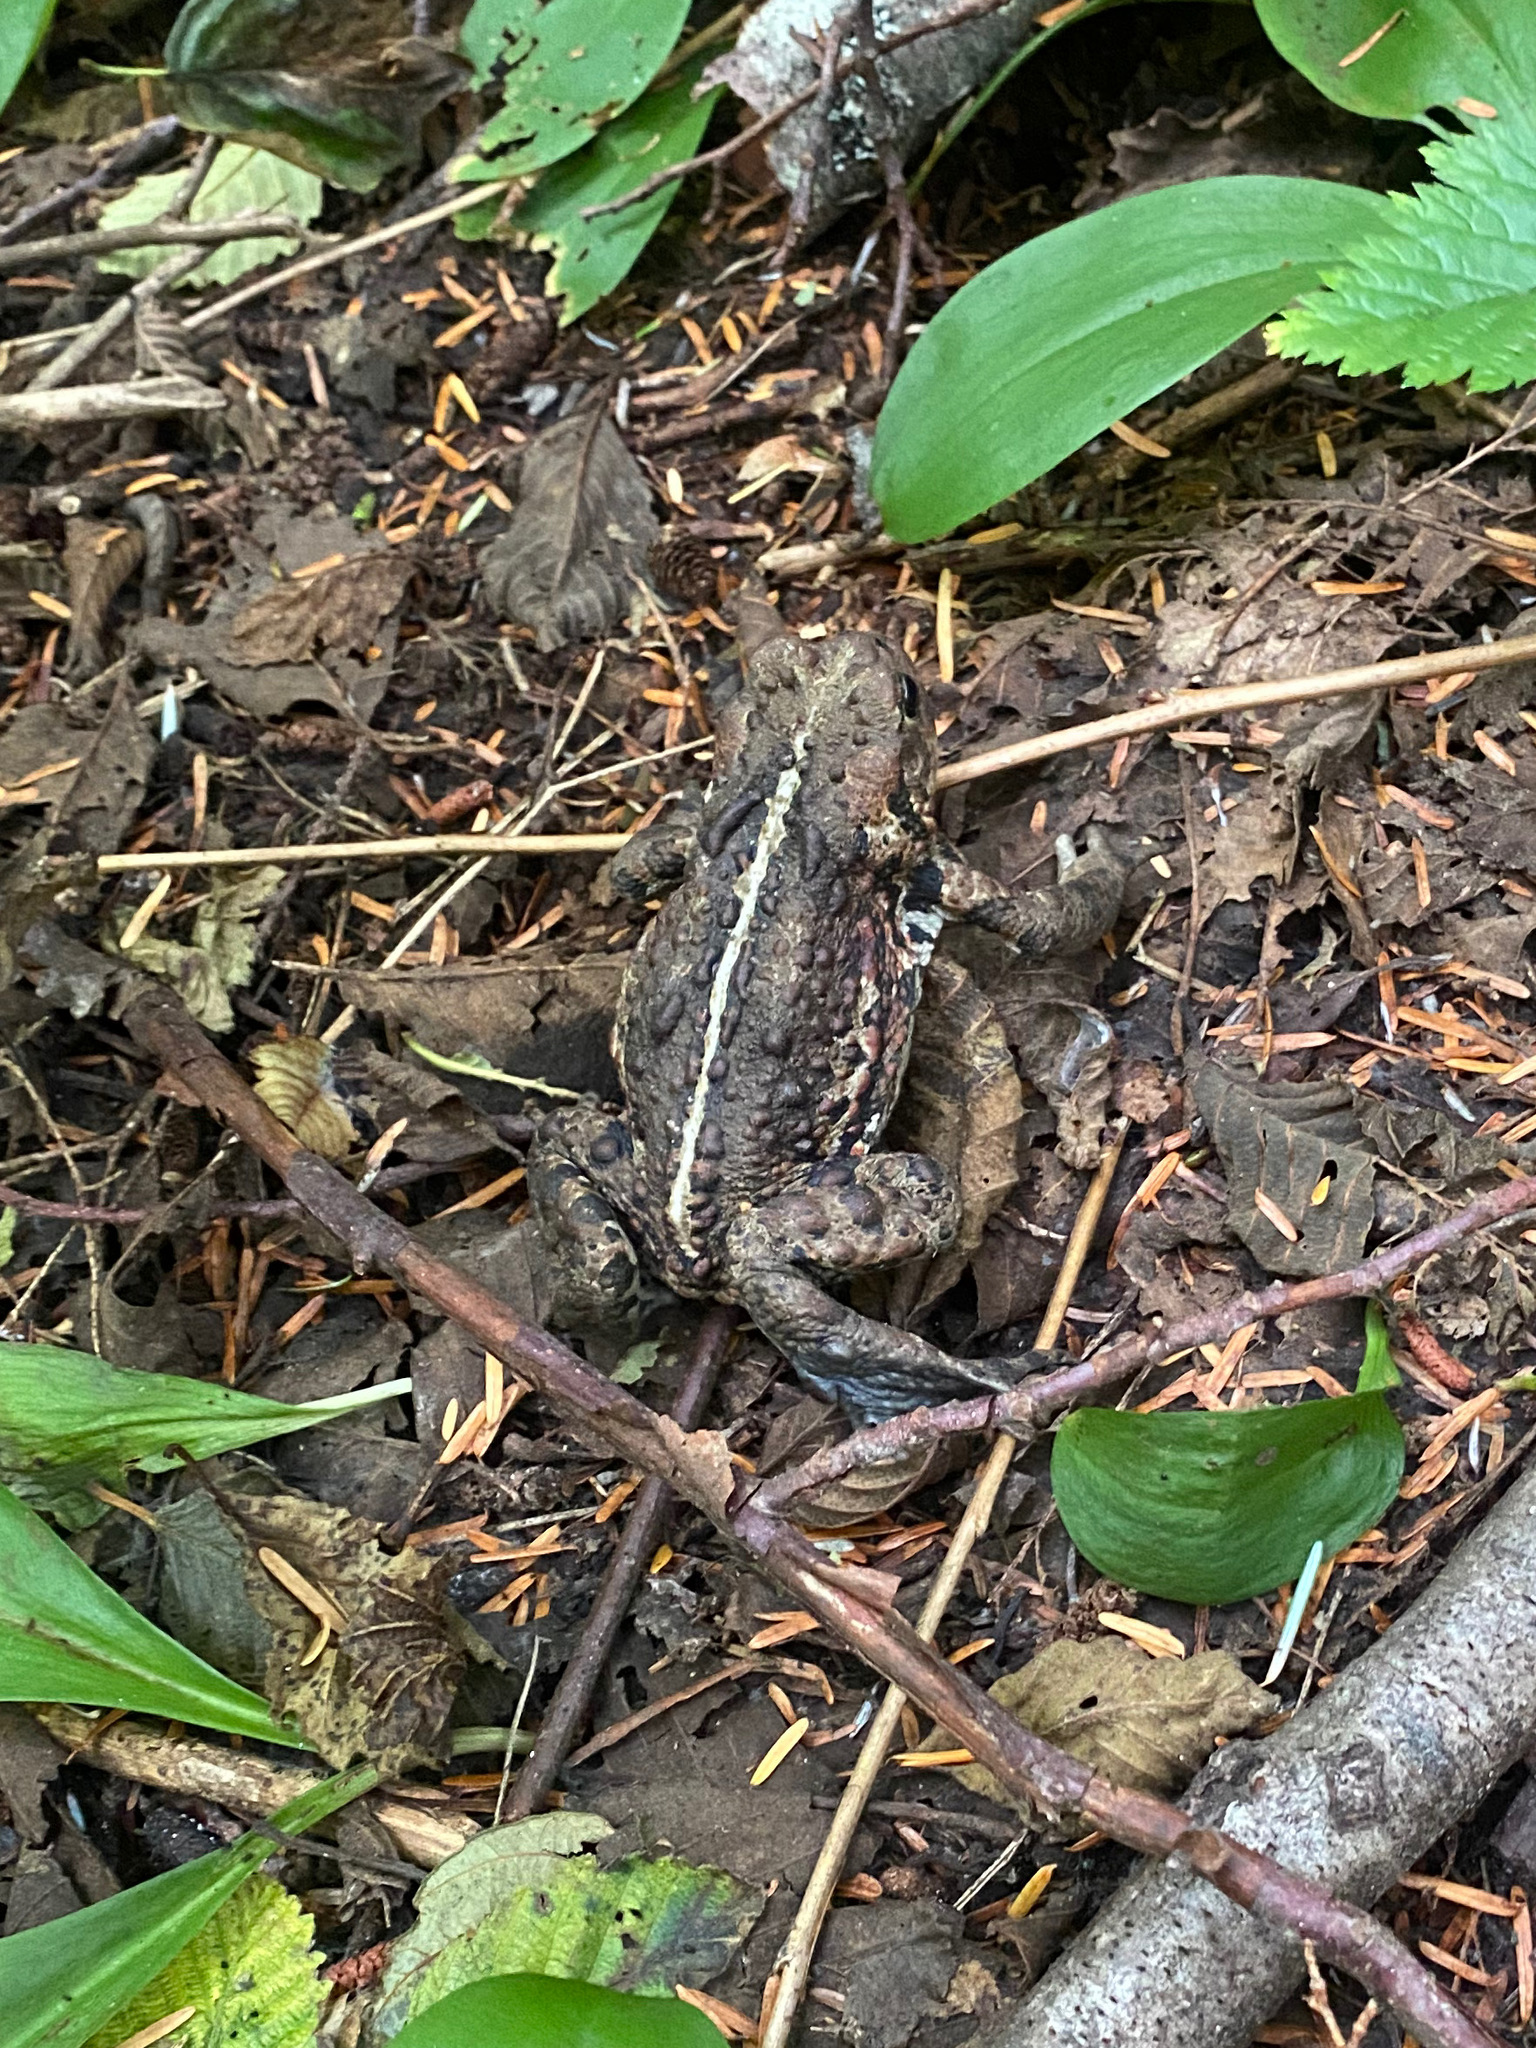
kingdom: Animalia
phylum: Chordata
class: Amphibia
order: Anura
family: Bufonidae
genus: Anaxyrus
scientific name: Anaxyrus boreas
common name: Western toad
